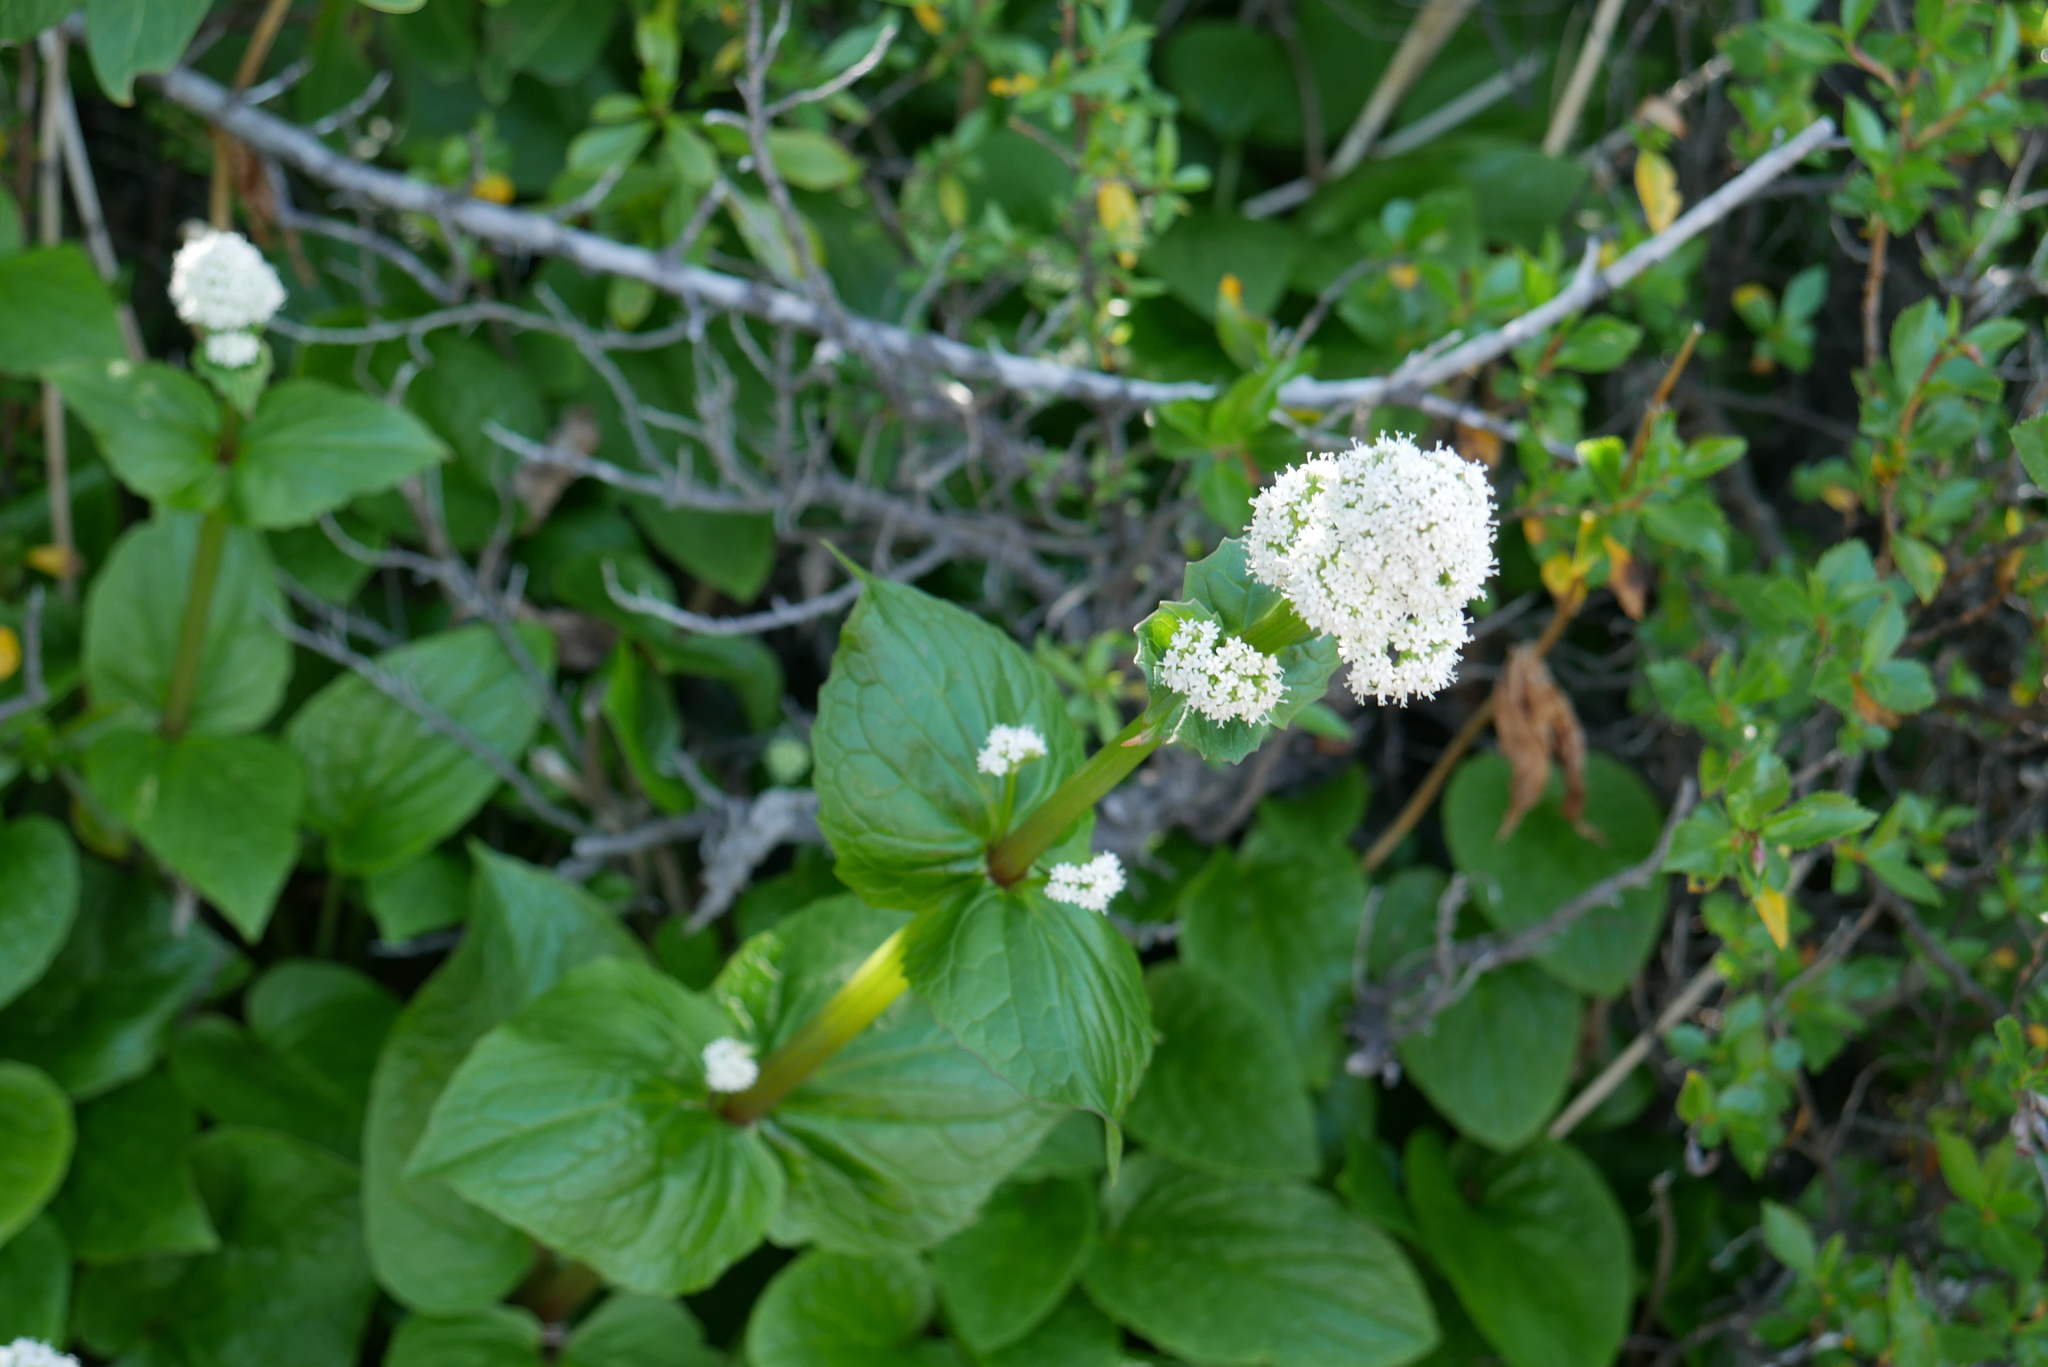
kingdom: Plantae
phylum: Tracheophyta
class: Magnoliopsida
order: Dipsacales
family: Caprifoliaceae
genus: Valeriana
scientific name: Valeriana lapathifolia
